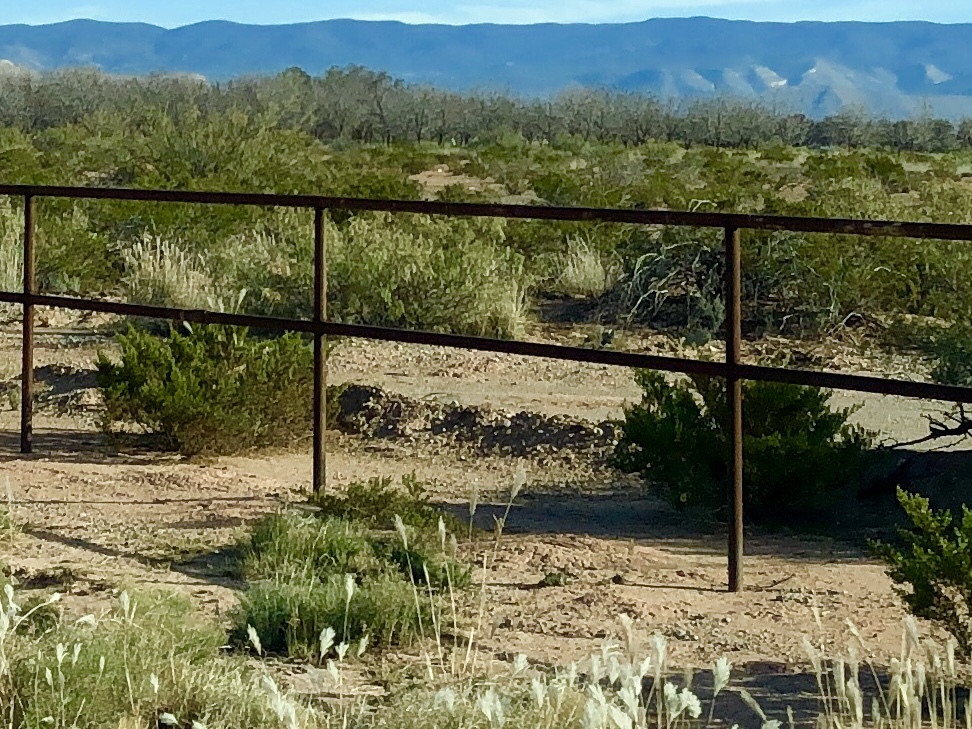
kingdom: Plantae
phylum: Tracheophyta
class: Magnoliopsida
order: Zygophyllales
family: Zygophyllaceae
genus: Larrea
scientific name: Larrea tridentata
